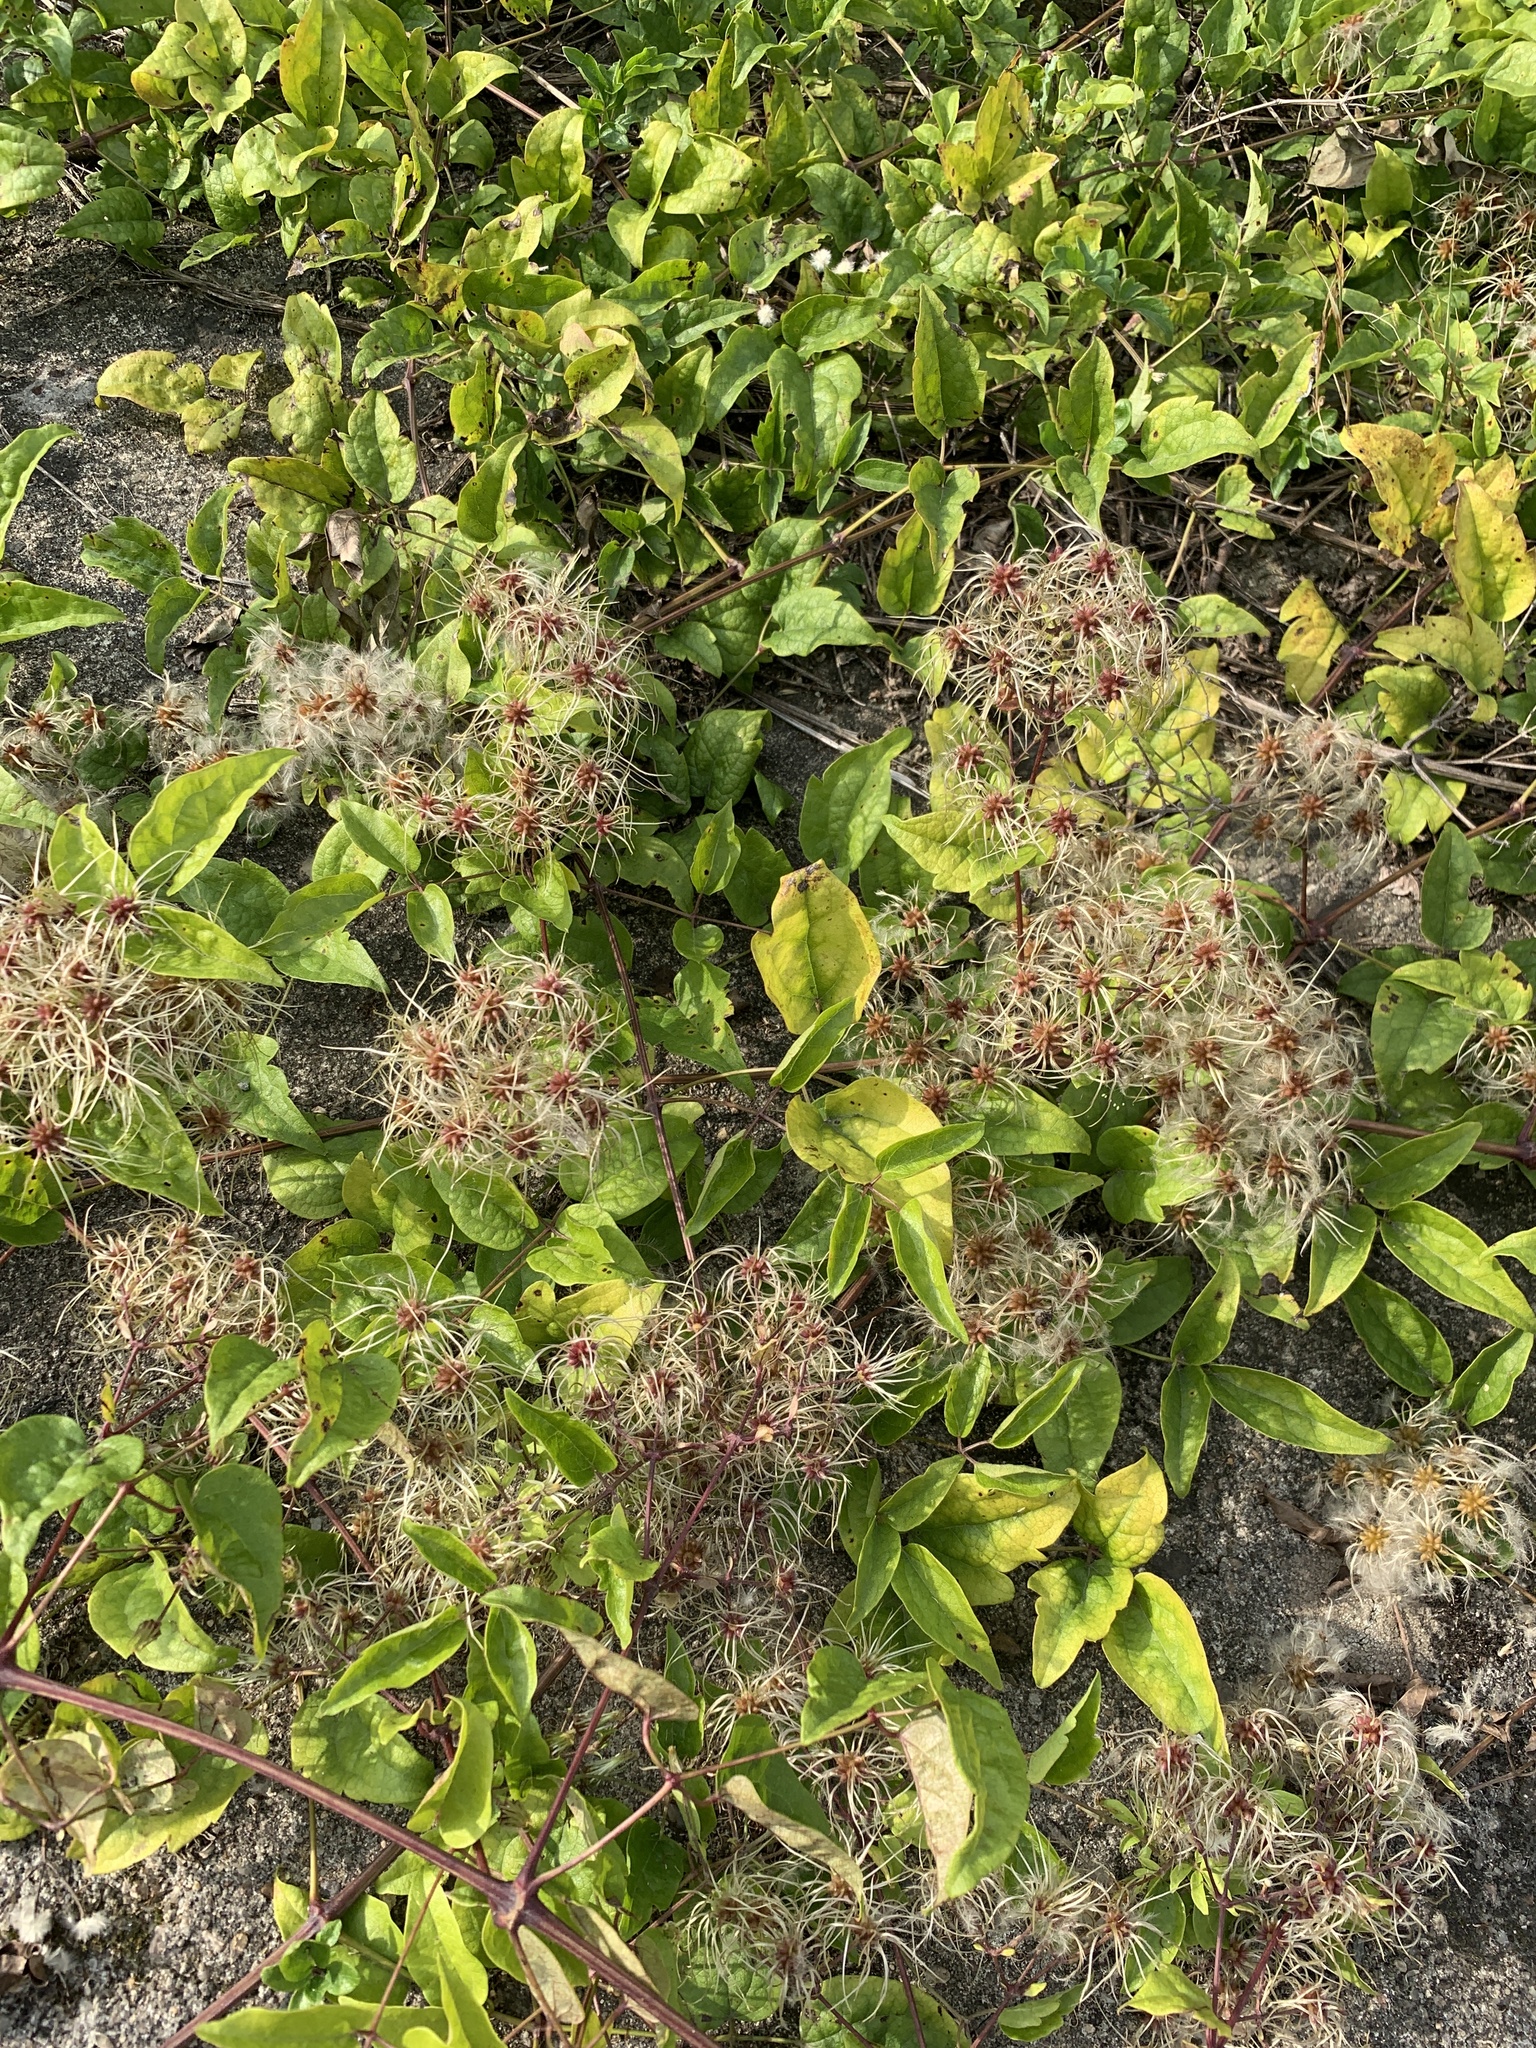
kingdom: Plantae
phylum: Tracheophyta
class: Magnoliopsida
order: Ranunculales
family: Ranunculaceae
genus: Clematis
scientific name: Clematis vitalba
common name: Evergreen clematis
